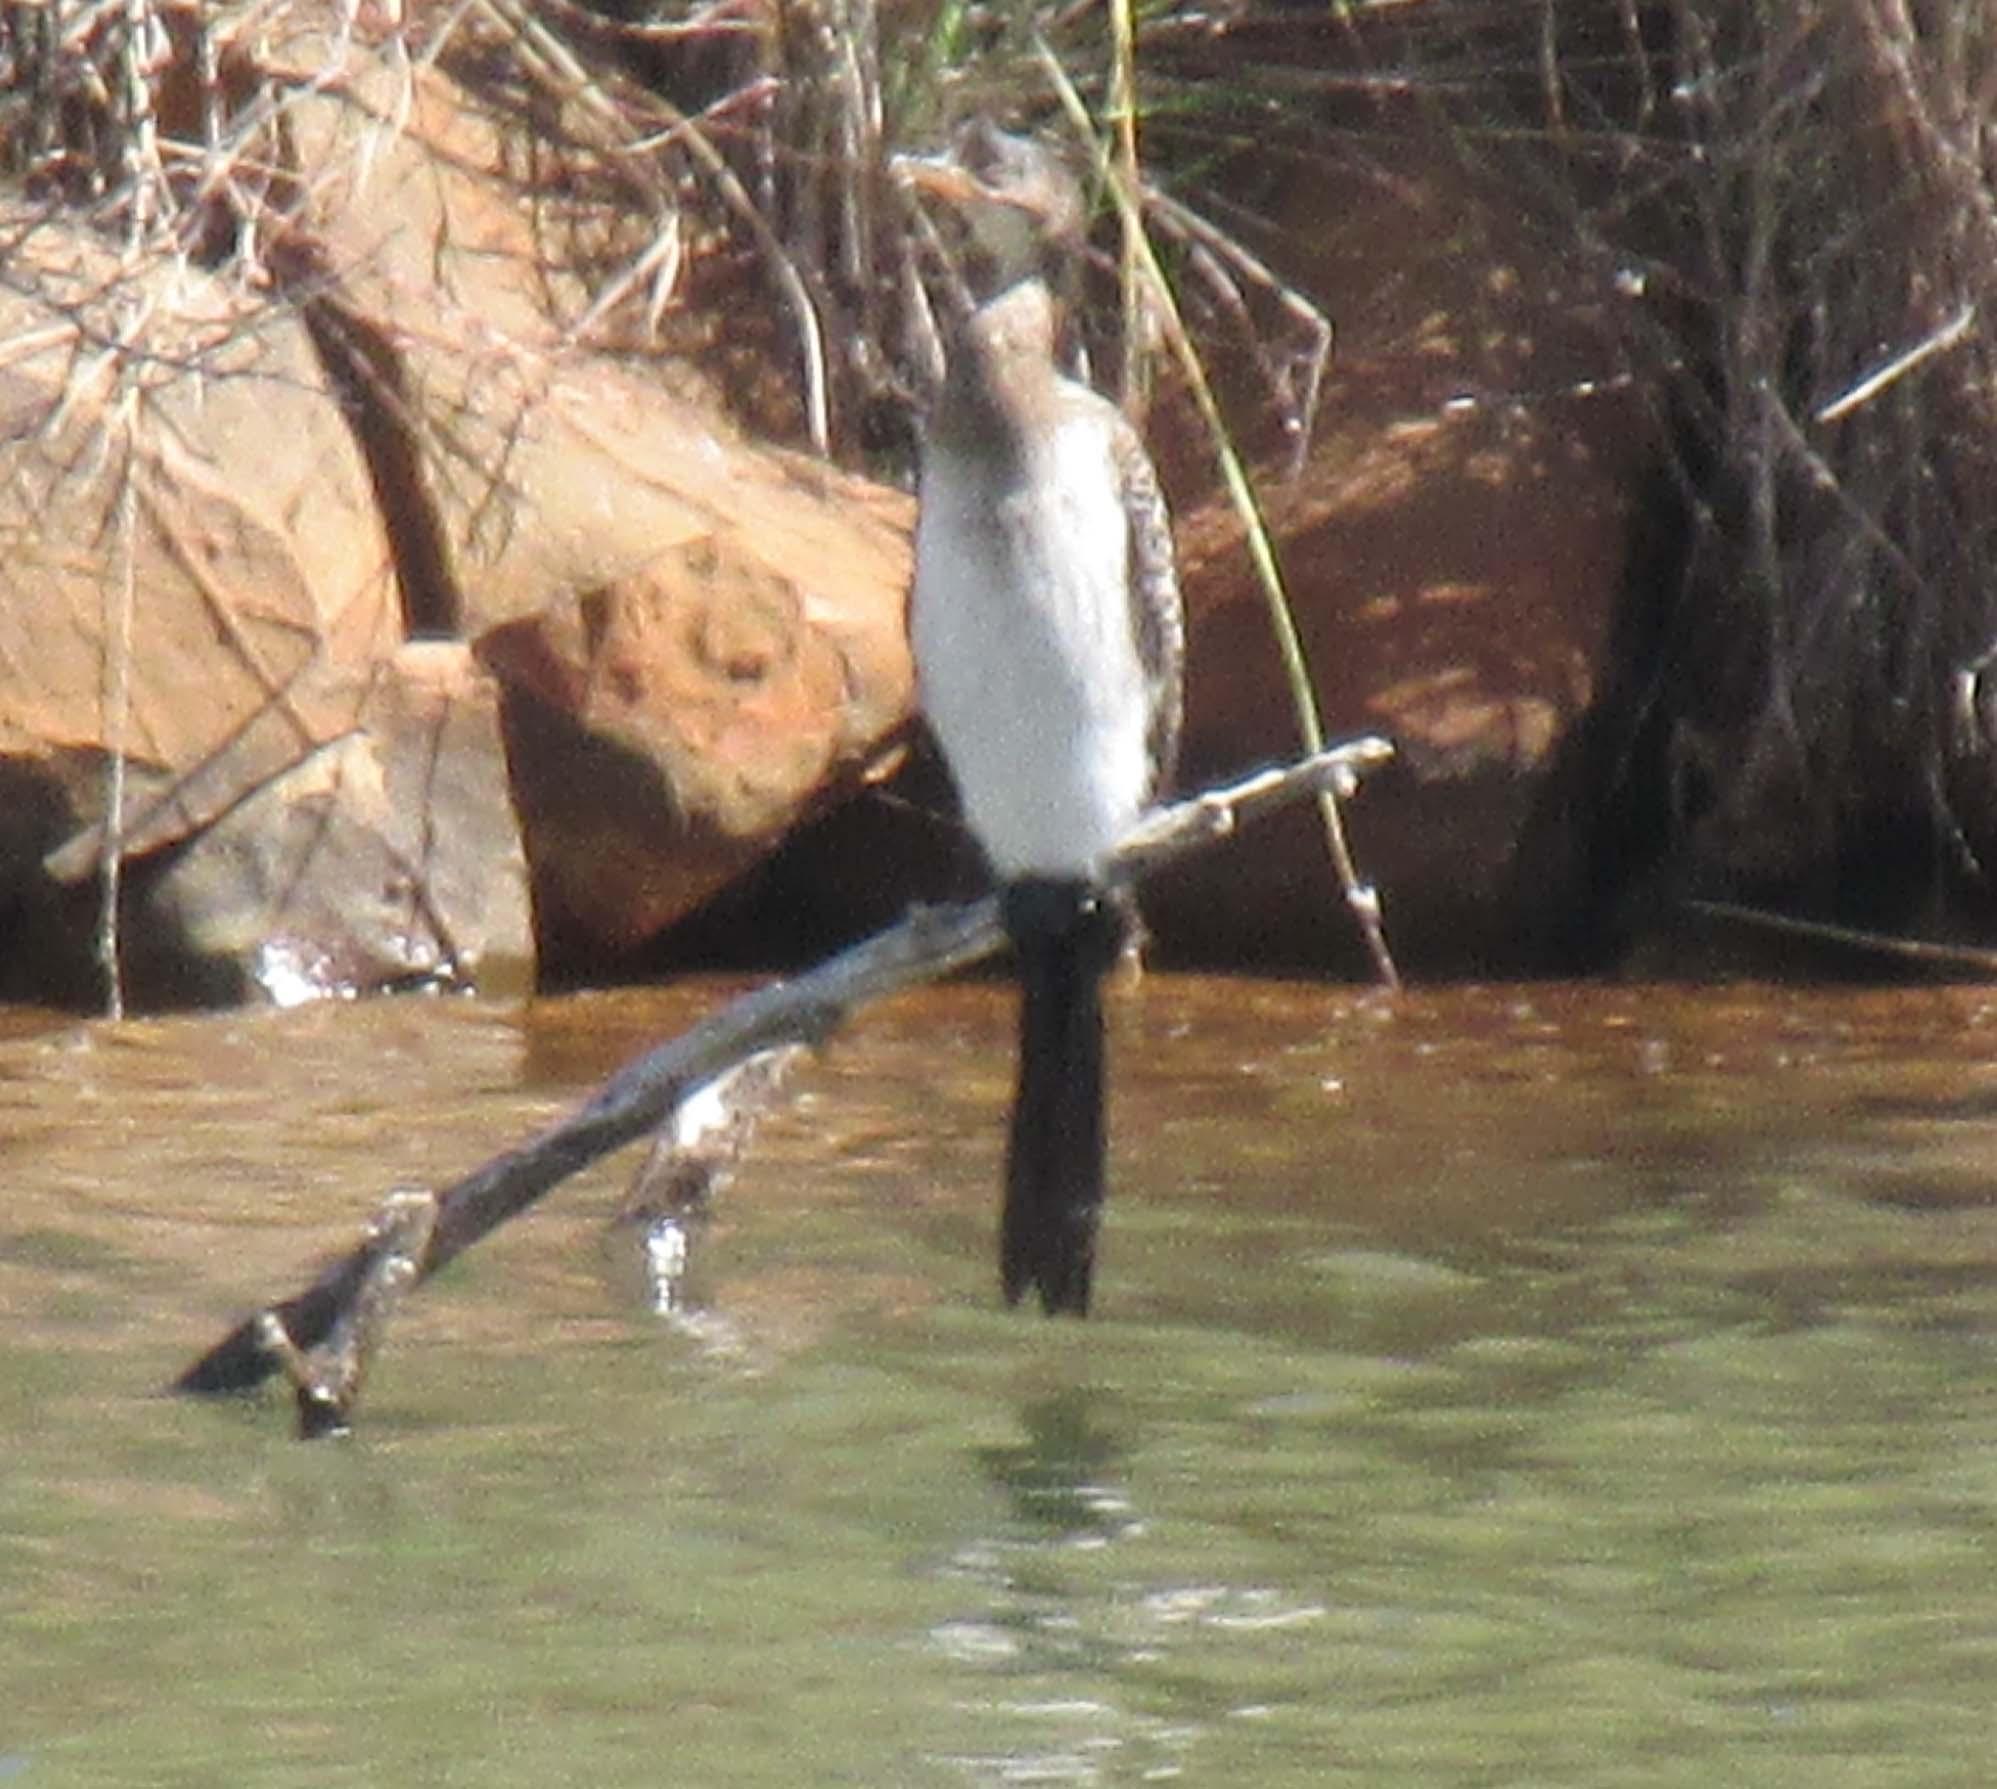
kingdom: Animalia
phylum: Chordata
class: Aves
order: Suliformes
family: Phalacrocoracidae
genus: Microcarbo
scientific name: Microcarbo africanus
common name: Long-tailed cormorant
